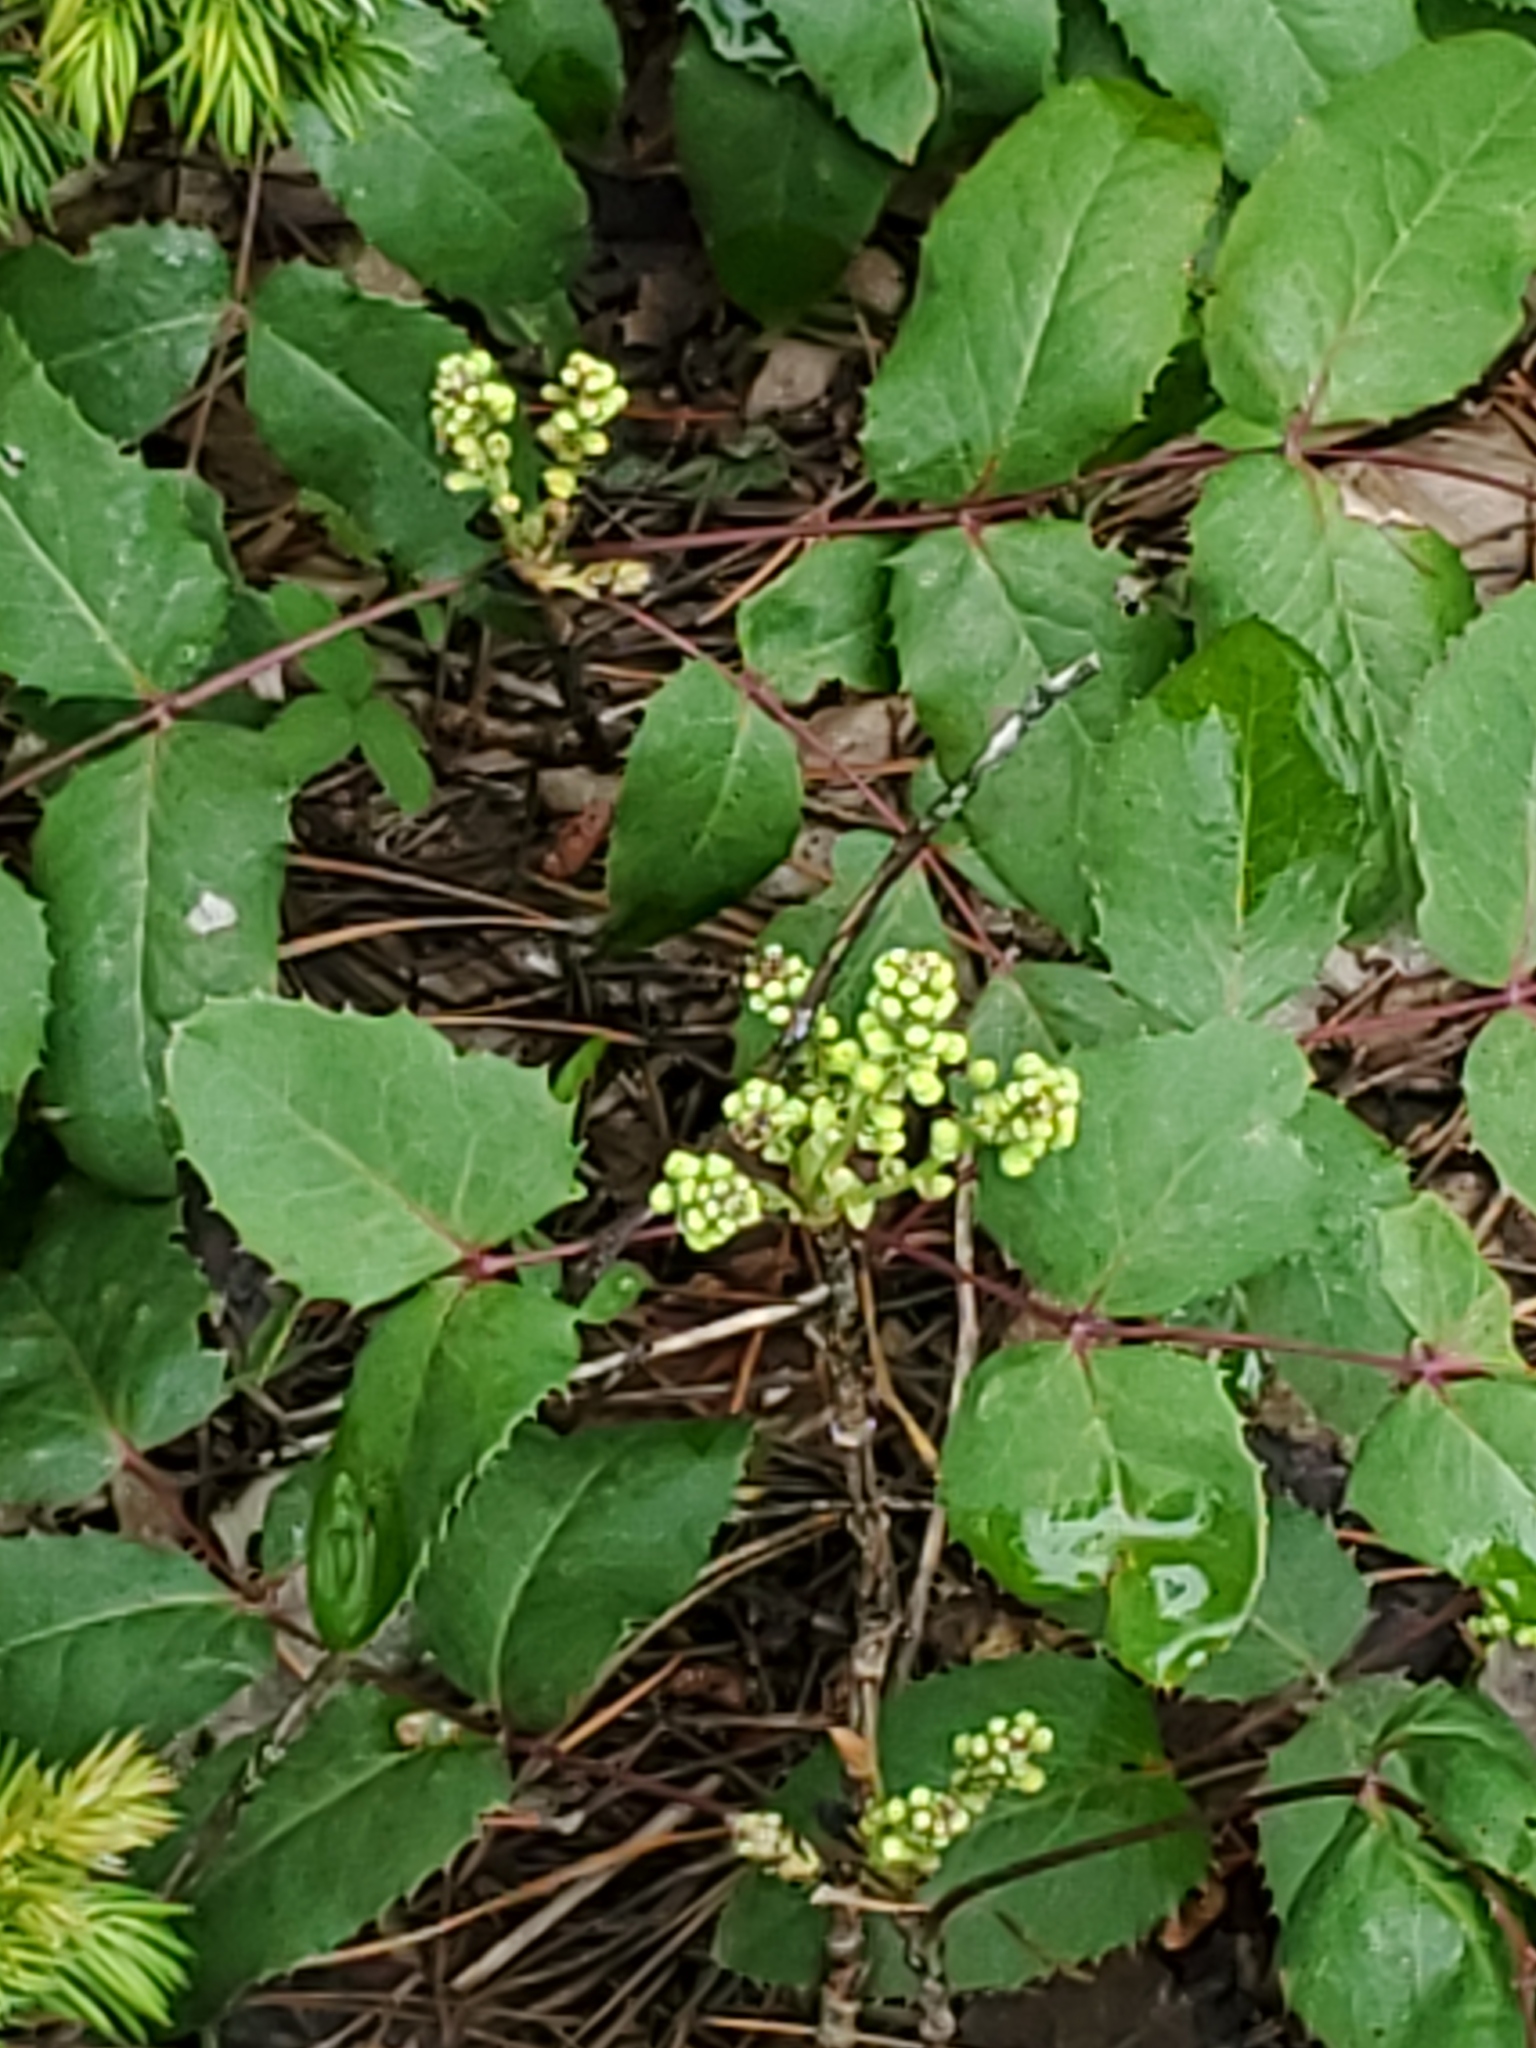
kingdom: Plantae
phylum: Tracheophyta
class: Magnoliopsida
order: Ranunculales
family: Berberidaceae
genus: Mahonia
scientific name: Mahonia repens
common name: Creeping oregon-grape
